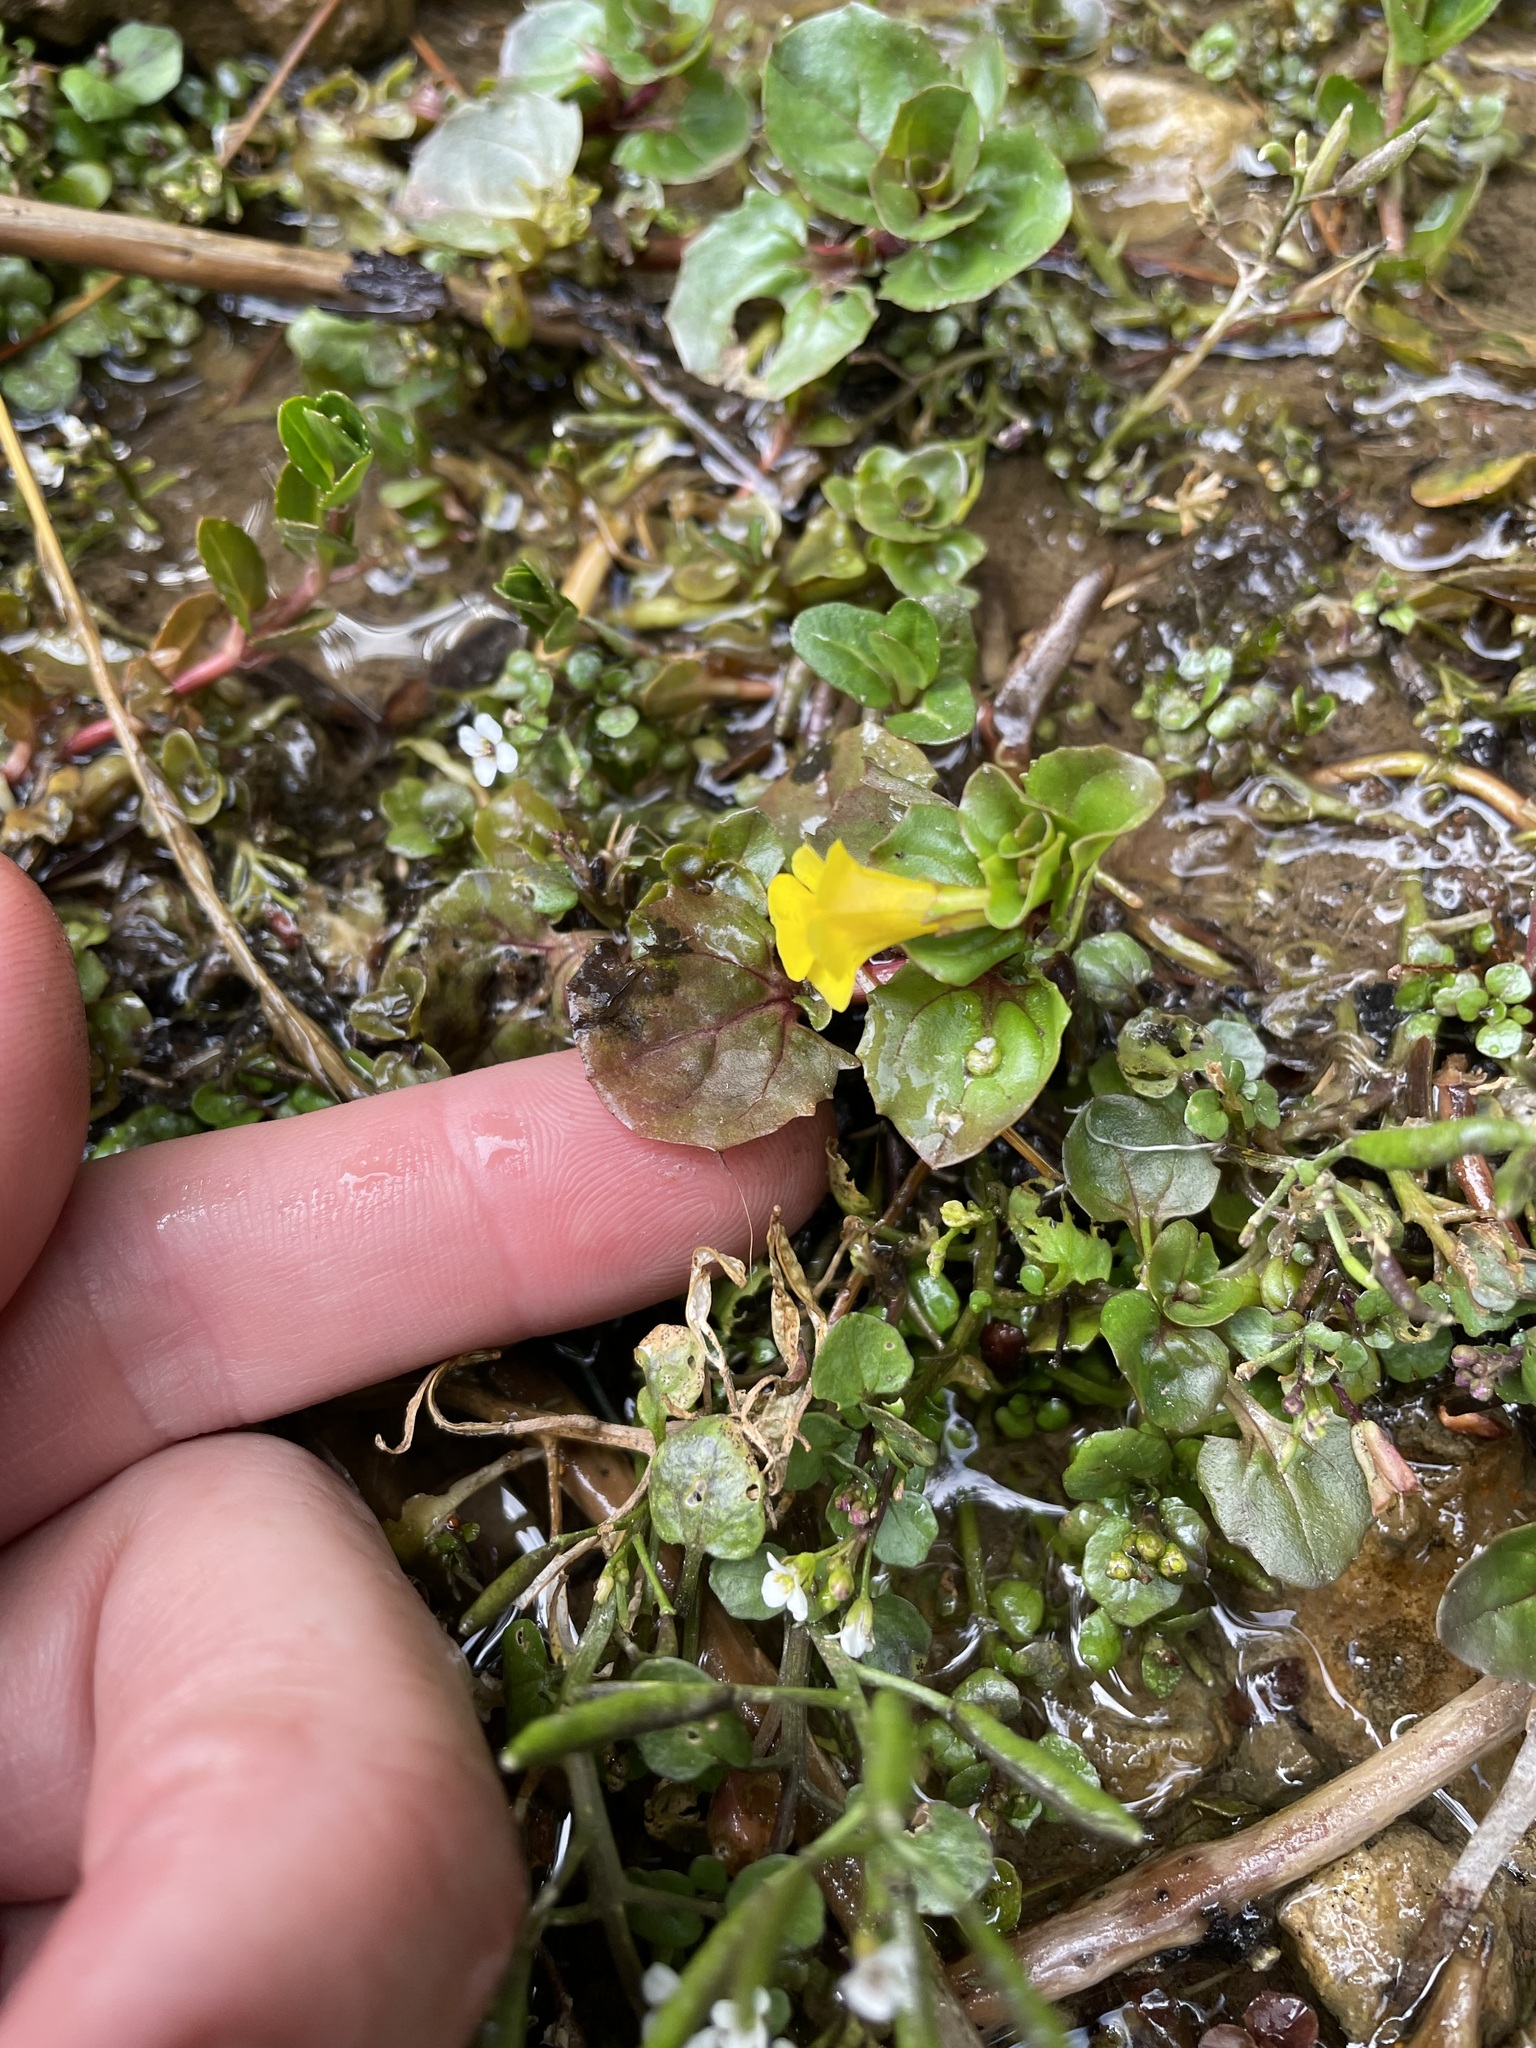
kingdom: Plantae
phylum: Tracheophyta
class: Magnoliopsida
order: Lamiales
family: Phrymaceae
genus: Erythranthe
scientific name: Erythranthe geyeri
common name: Geyer's monkeyflower
